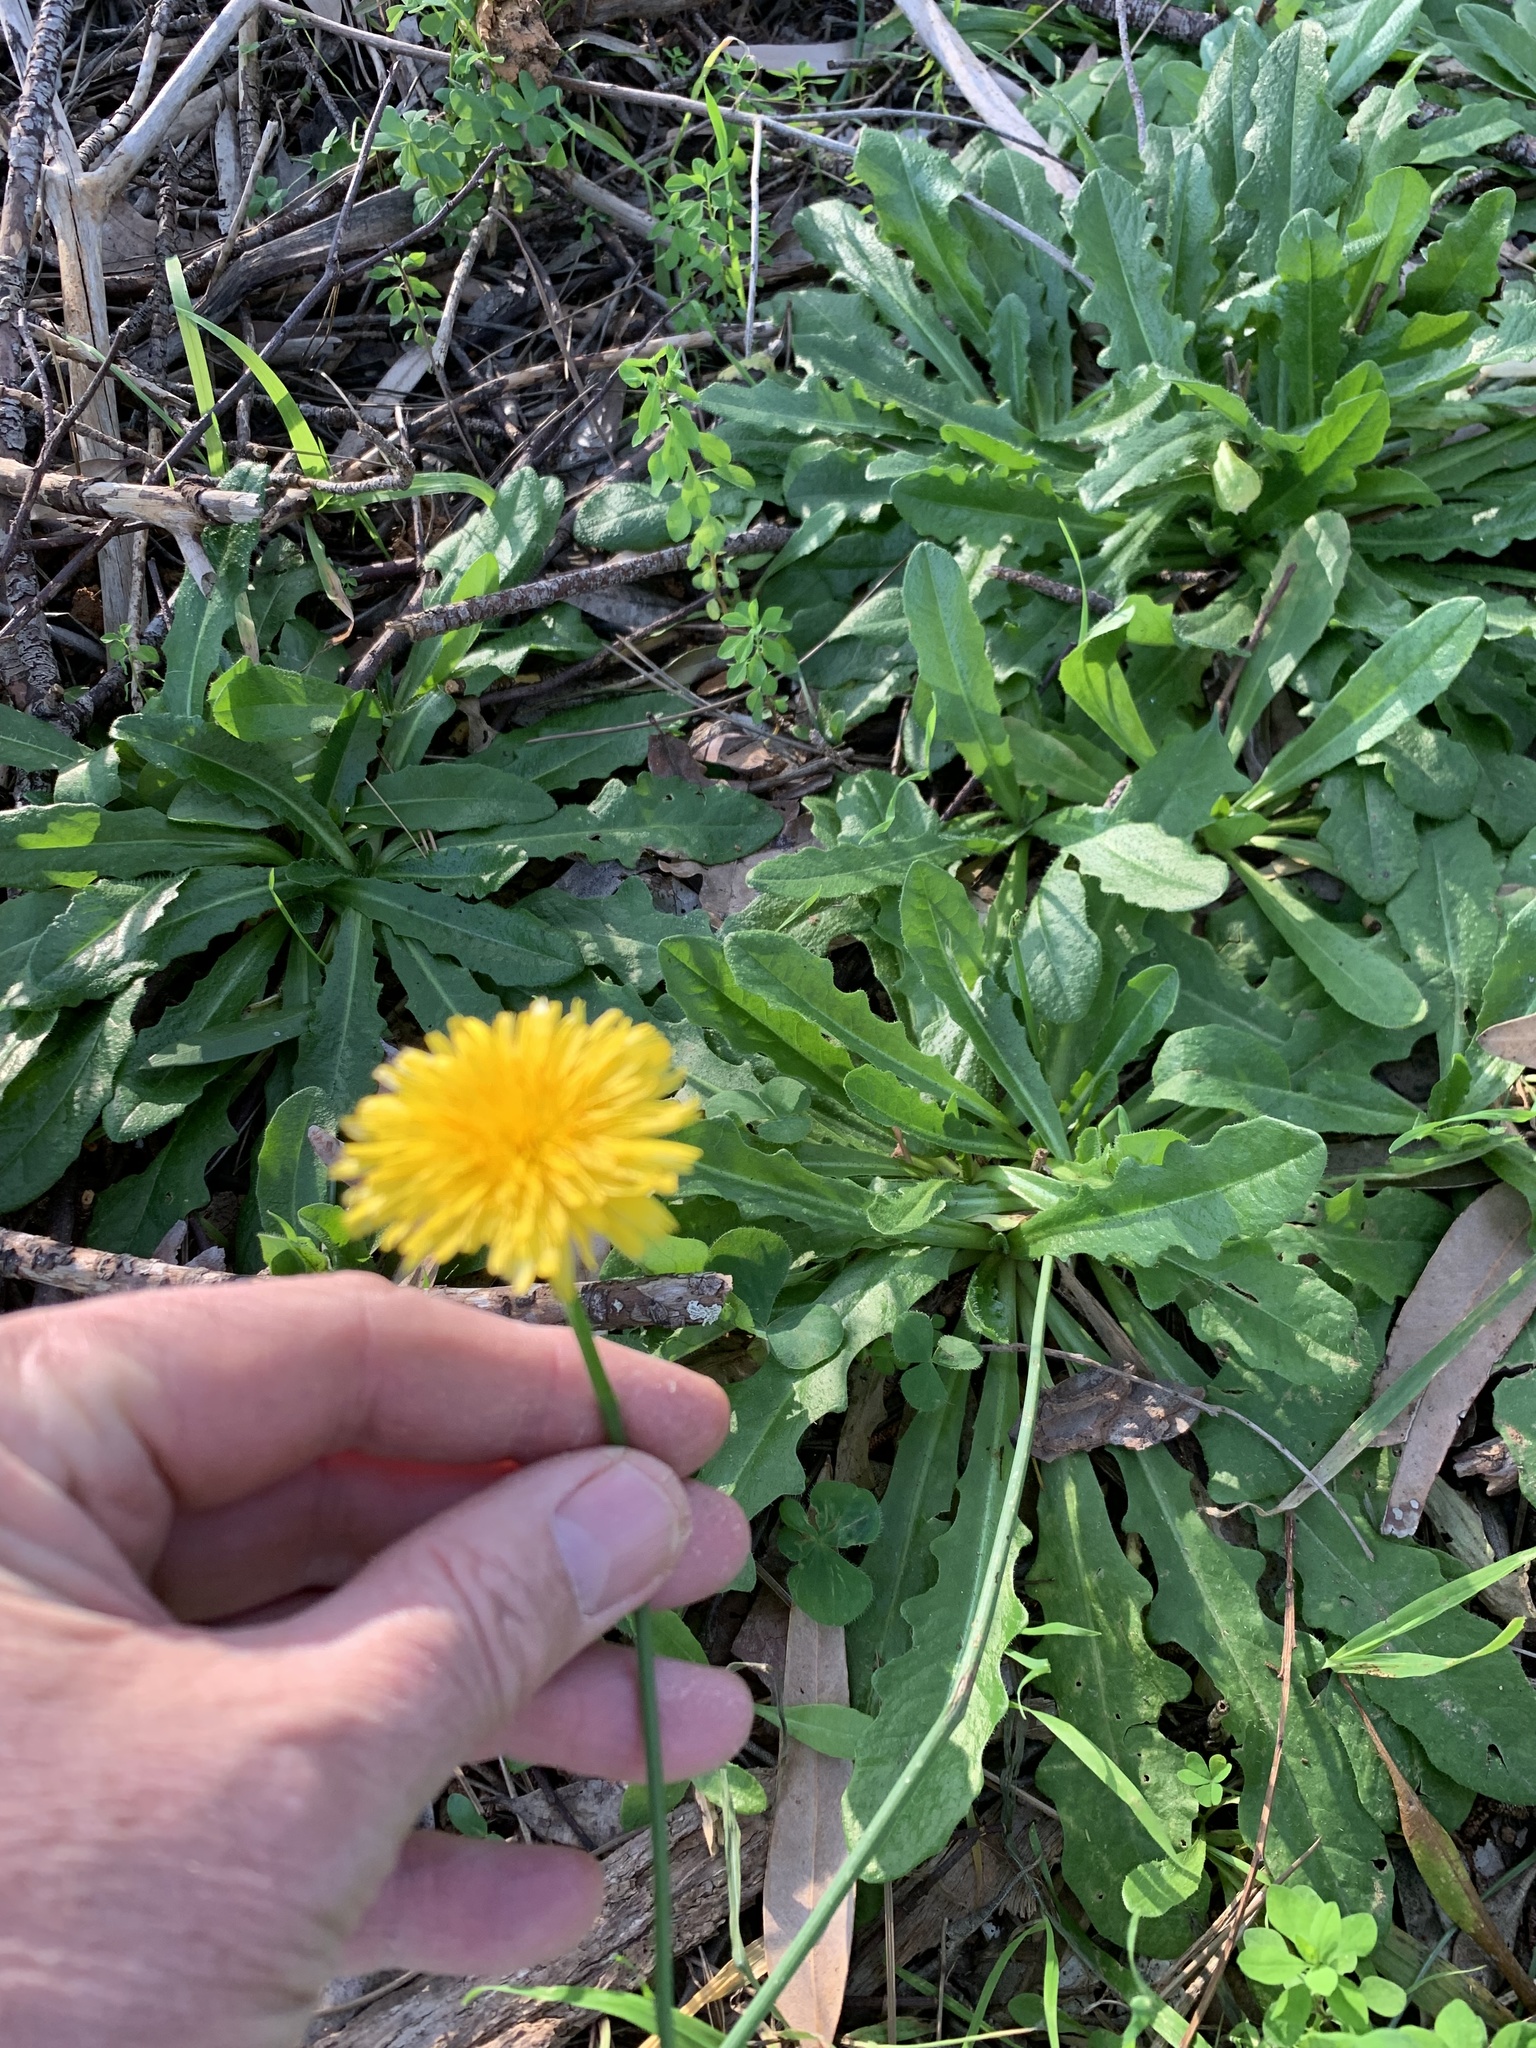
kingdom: Plantae
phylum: Tracheophyta
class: Magnoliopsida
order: Asterales
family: Asteraceae
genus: Hypochaeris
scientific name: Hypochaeris radicata
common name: Flatweed
